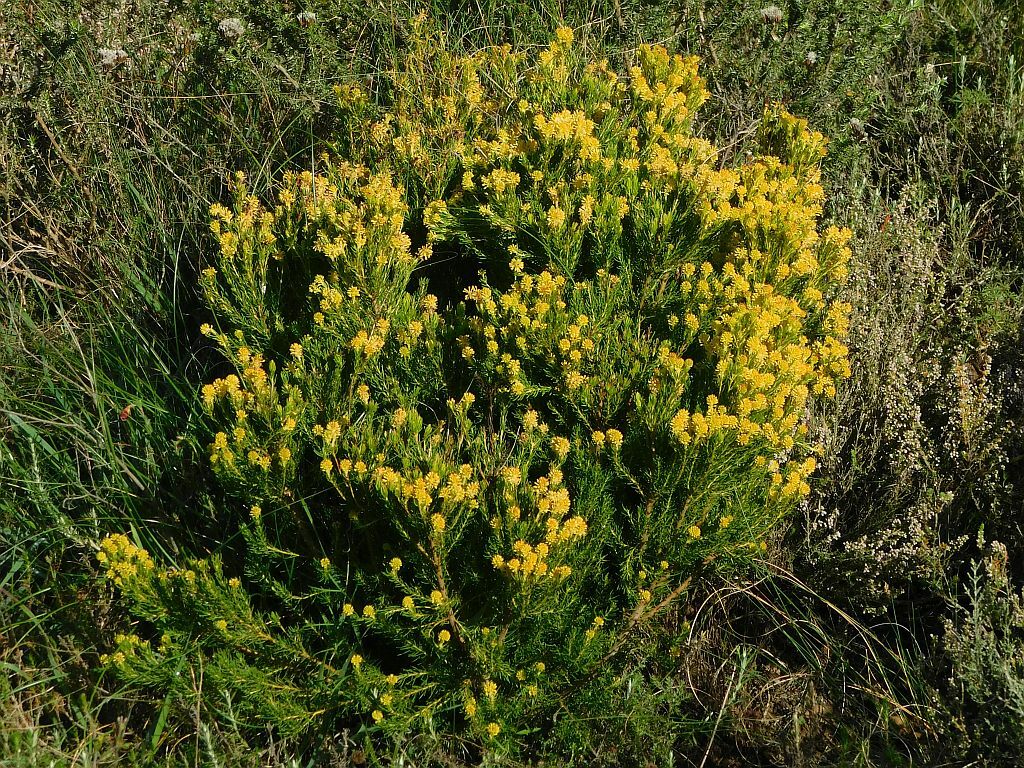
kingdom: Plantae
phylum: Tracheophyta
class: Magnoliopsida
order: Proteales
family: Proteaceae
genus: Leucadendron
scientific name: Leucadendron teretifolium
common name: Needle-leaf conebush
